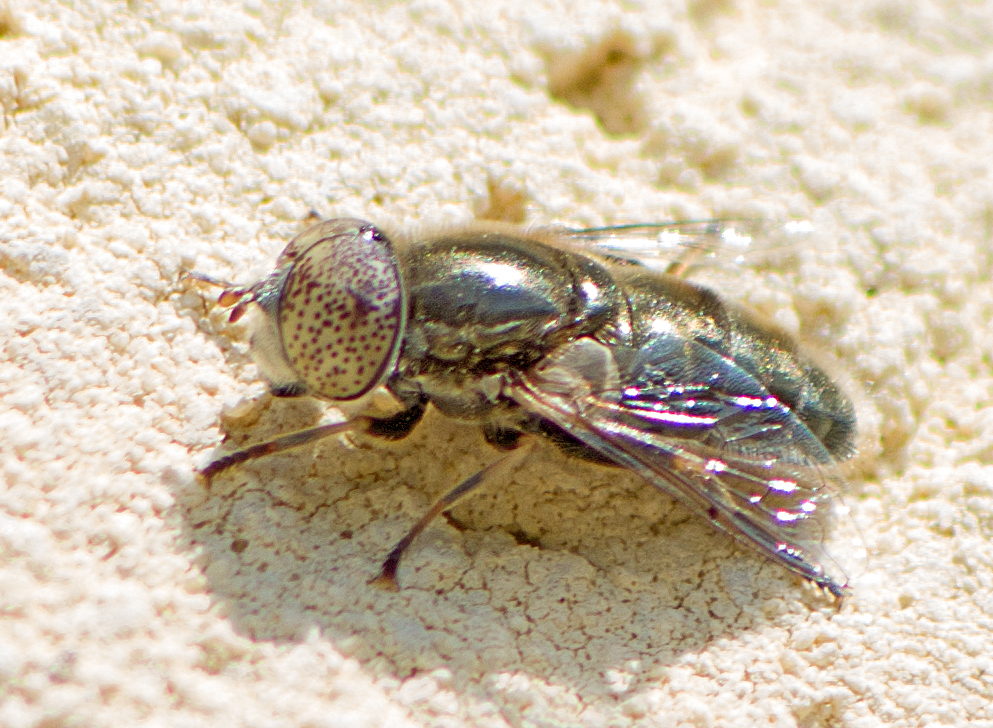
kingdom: Animalia
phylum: Arthropoda
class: Insecta
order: Diptera
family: Syrphidae
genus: Eristalinus
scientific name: Eristalinus aeneus
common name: Syrphid fly
